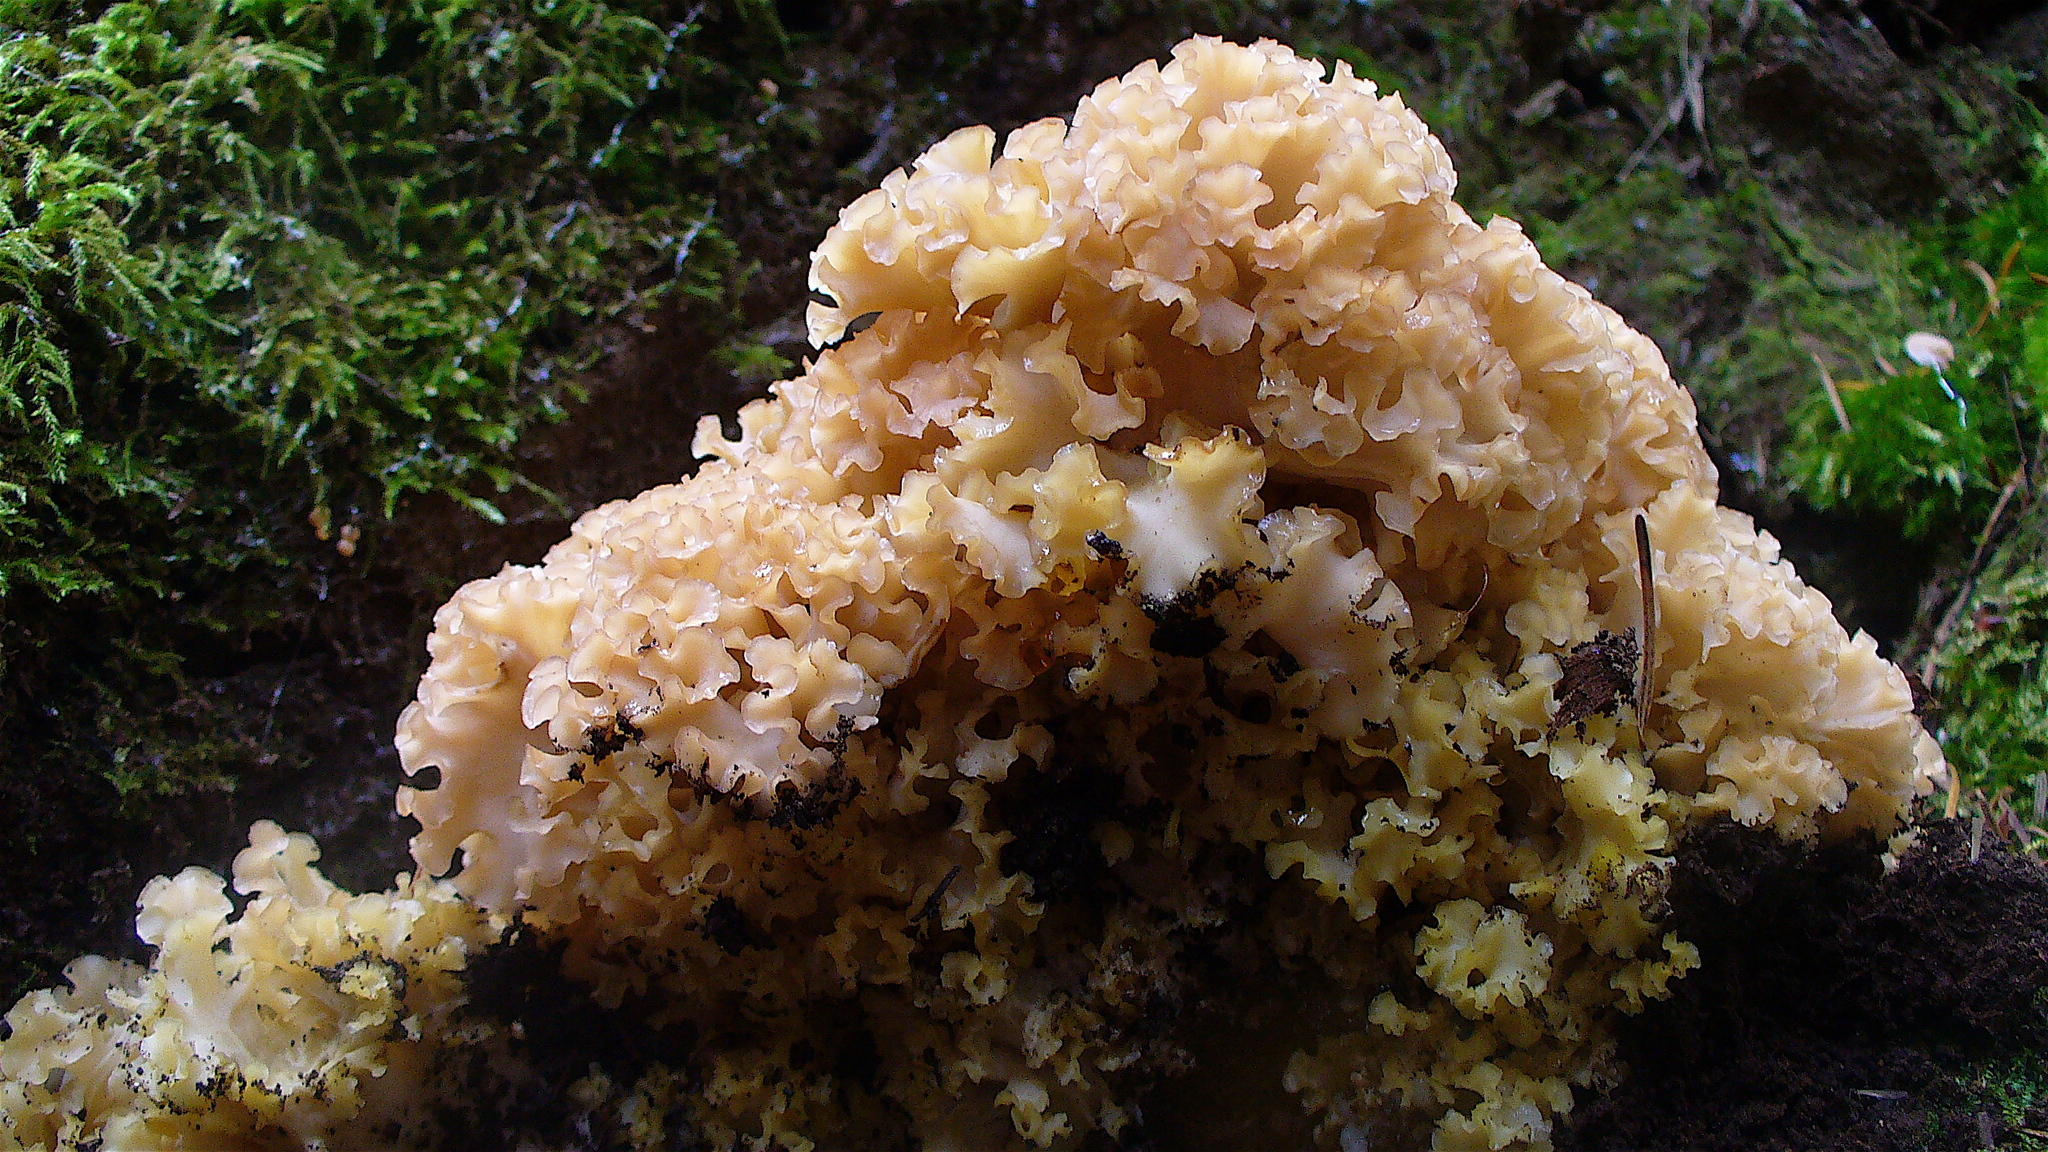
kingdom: Fungi
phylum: Basidiomycota
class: Agaricomycetes
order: Polyporales
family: Sparassidaceae
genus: Sparassis
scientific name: Sparassis radicata
